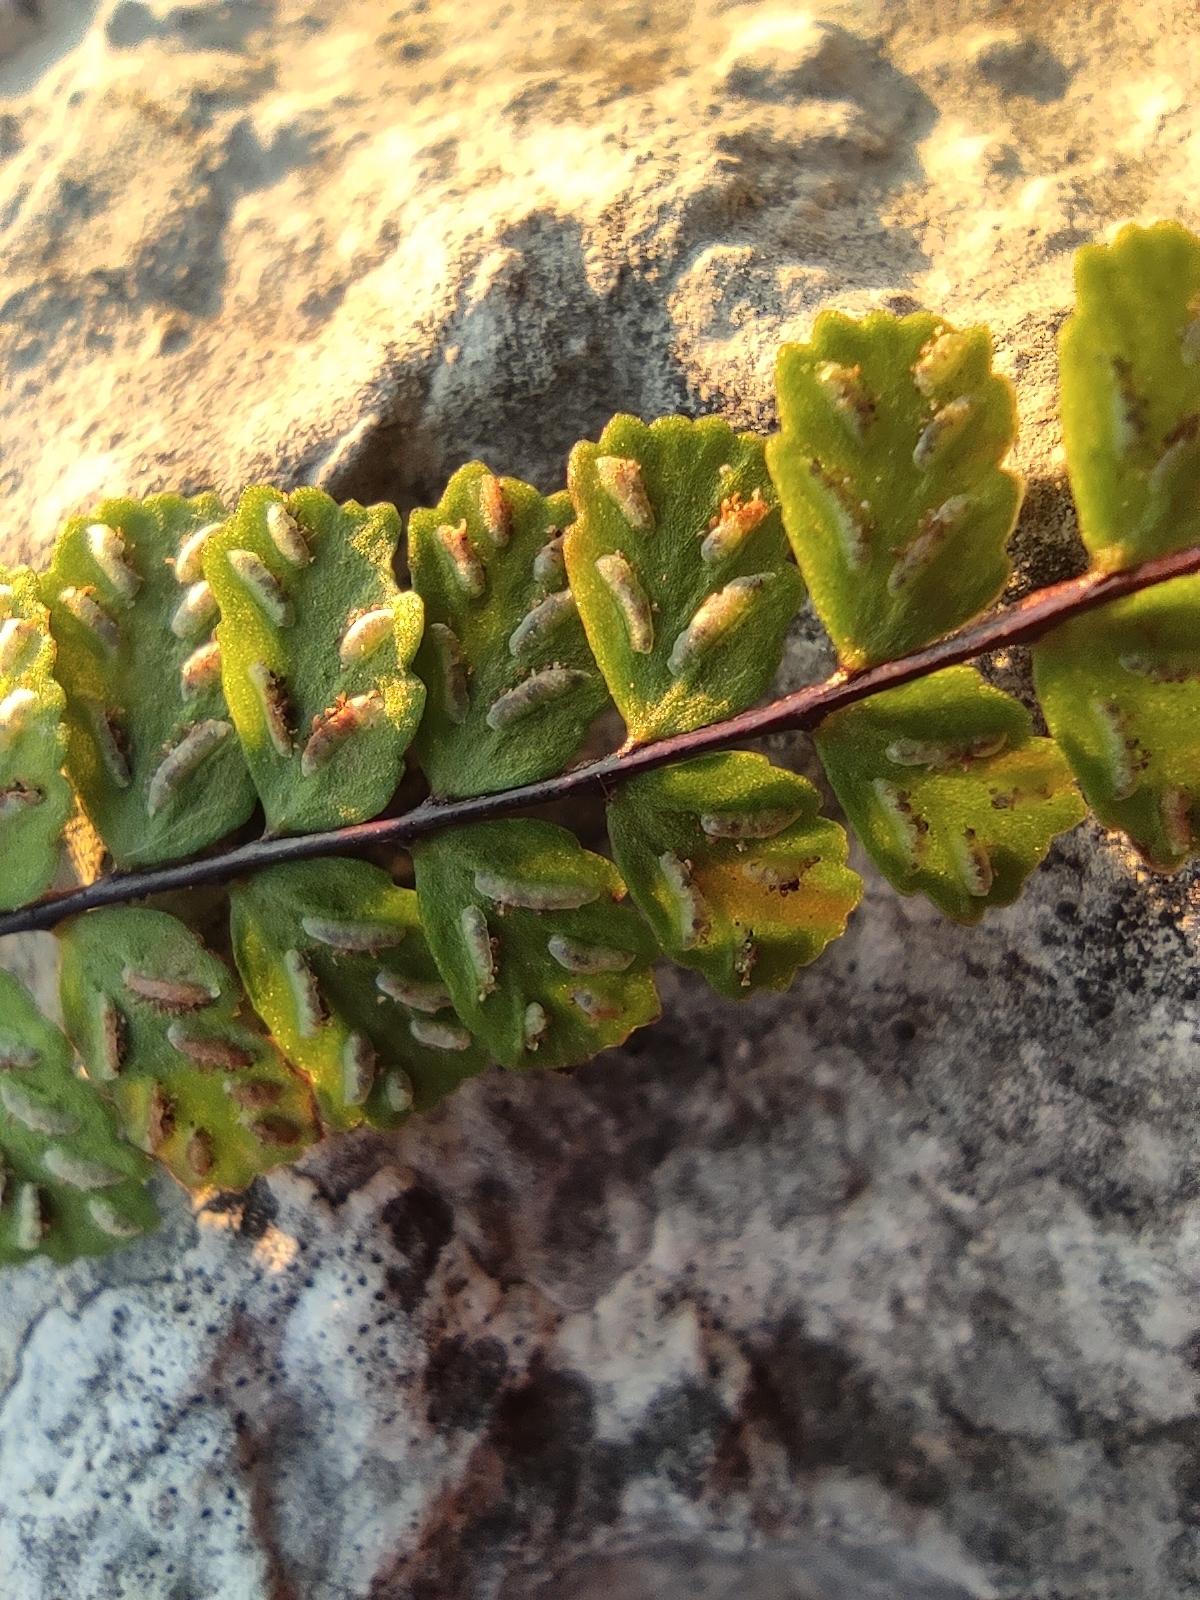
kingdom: Plantae
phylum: Tracheophyta
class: Polypodiopsida
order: Polypodiales
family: Aspleniaceae
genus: Asplenium
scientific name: Asplenium trichomanes
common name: Maidenhair spleenwort
